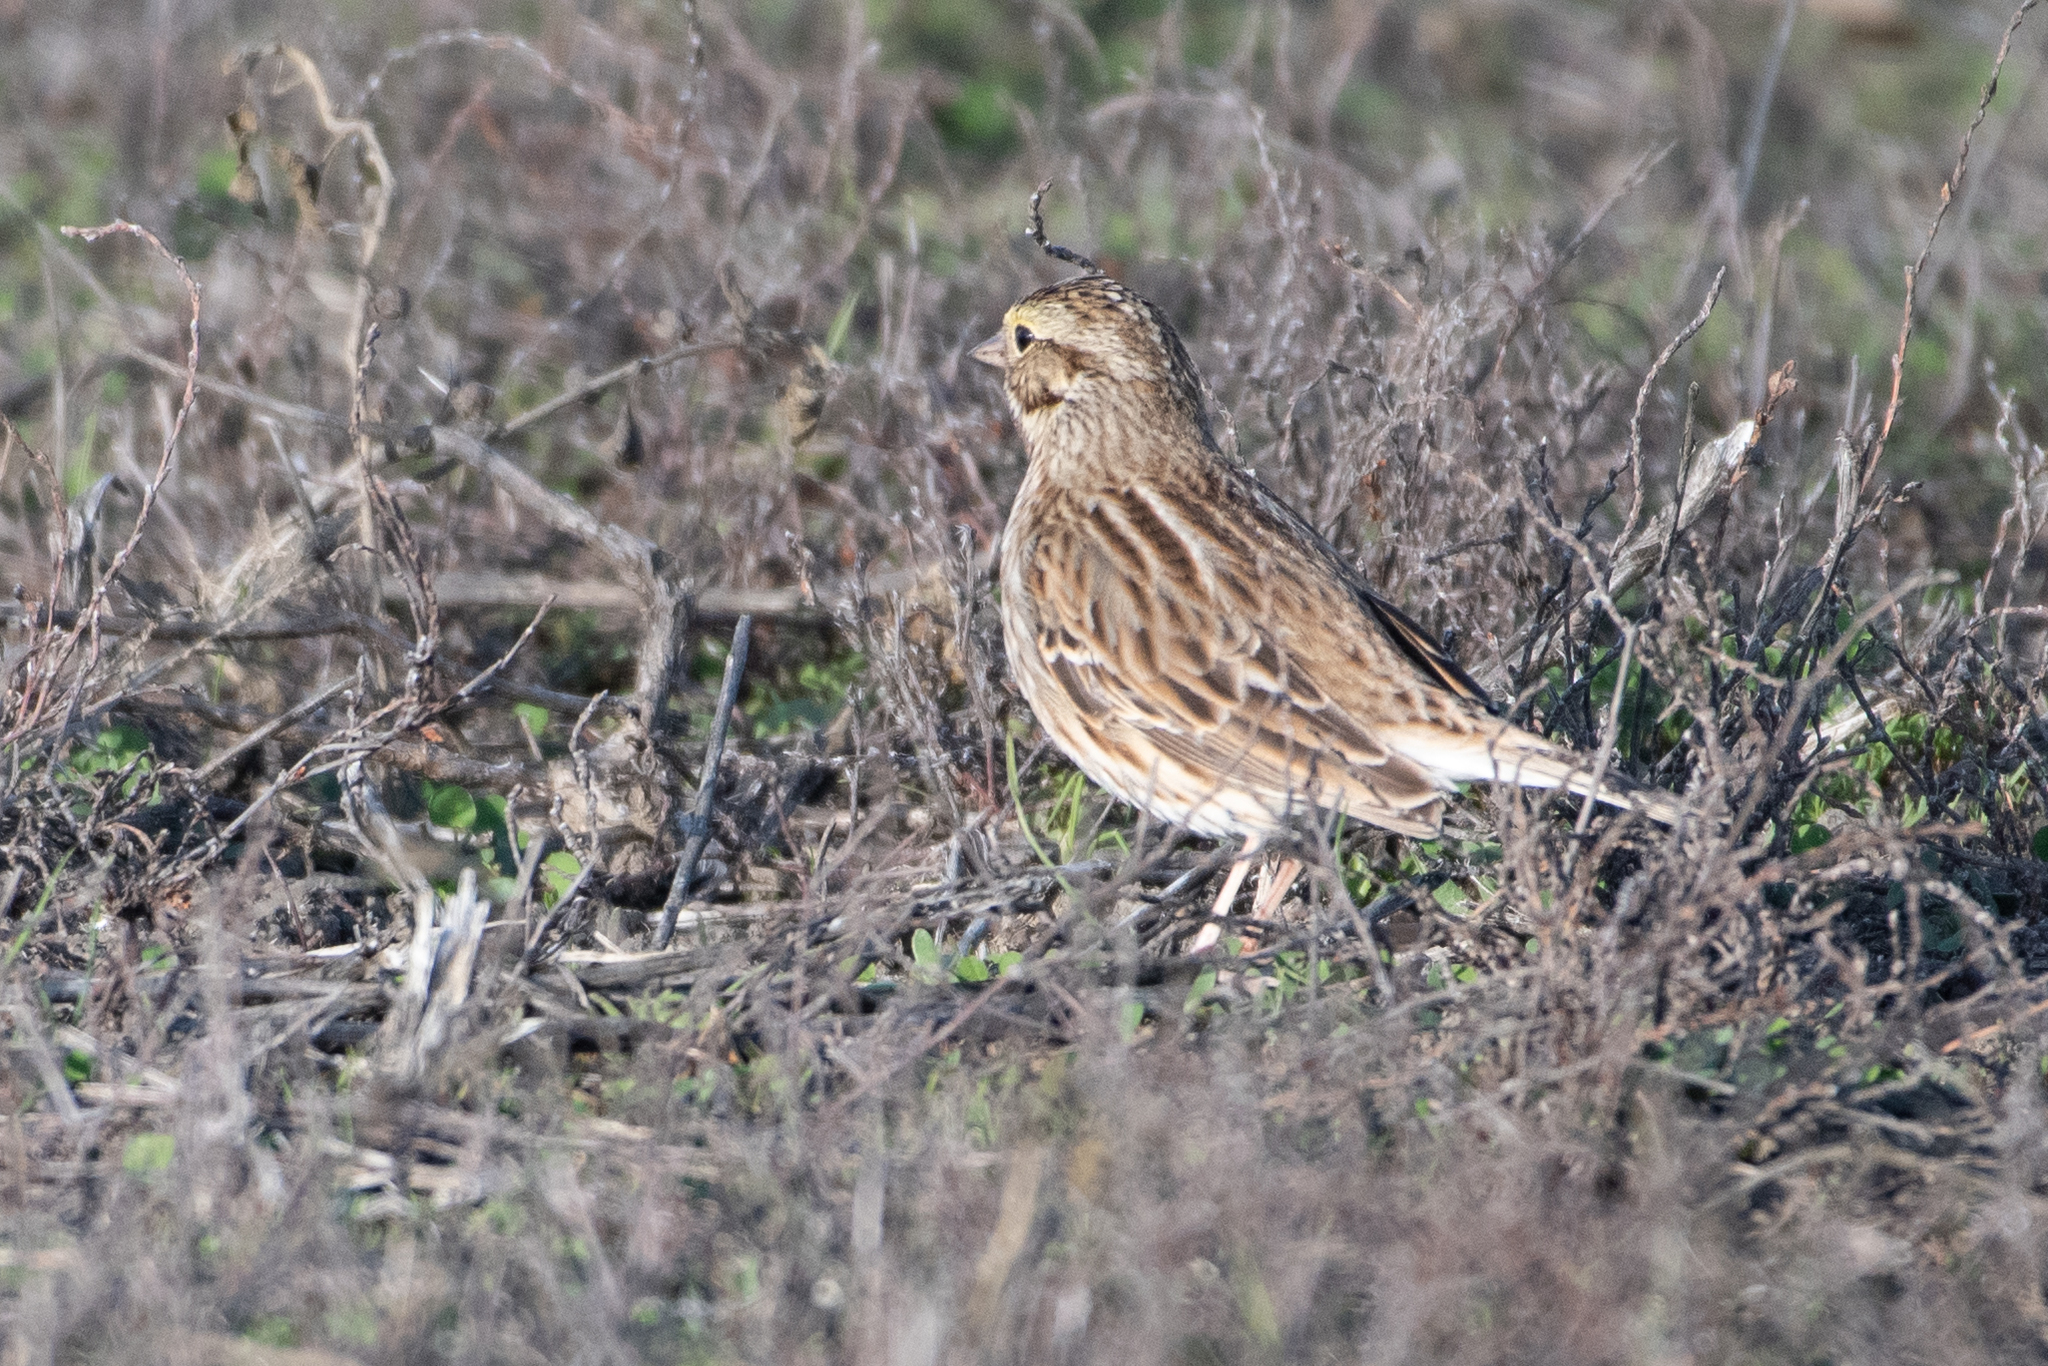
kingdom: Animalia
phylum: Chordata
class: Aves
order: Passeriformes
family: Passerellidae
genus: Passerculus
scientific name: Passerculus sandwichensis
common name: Savannah sparrow
